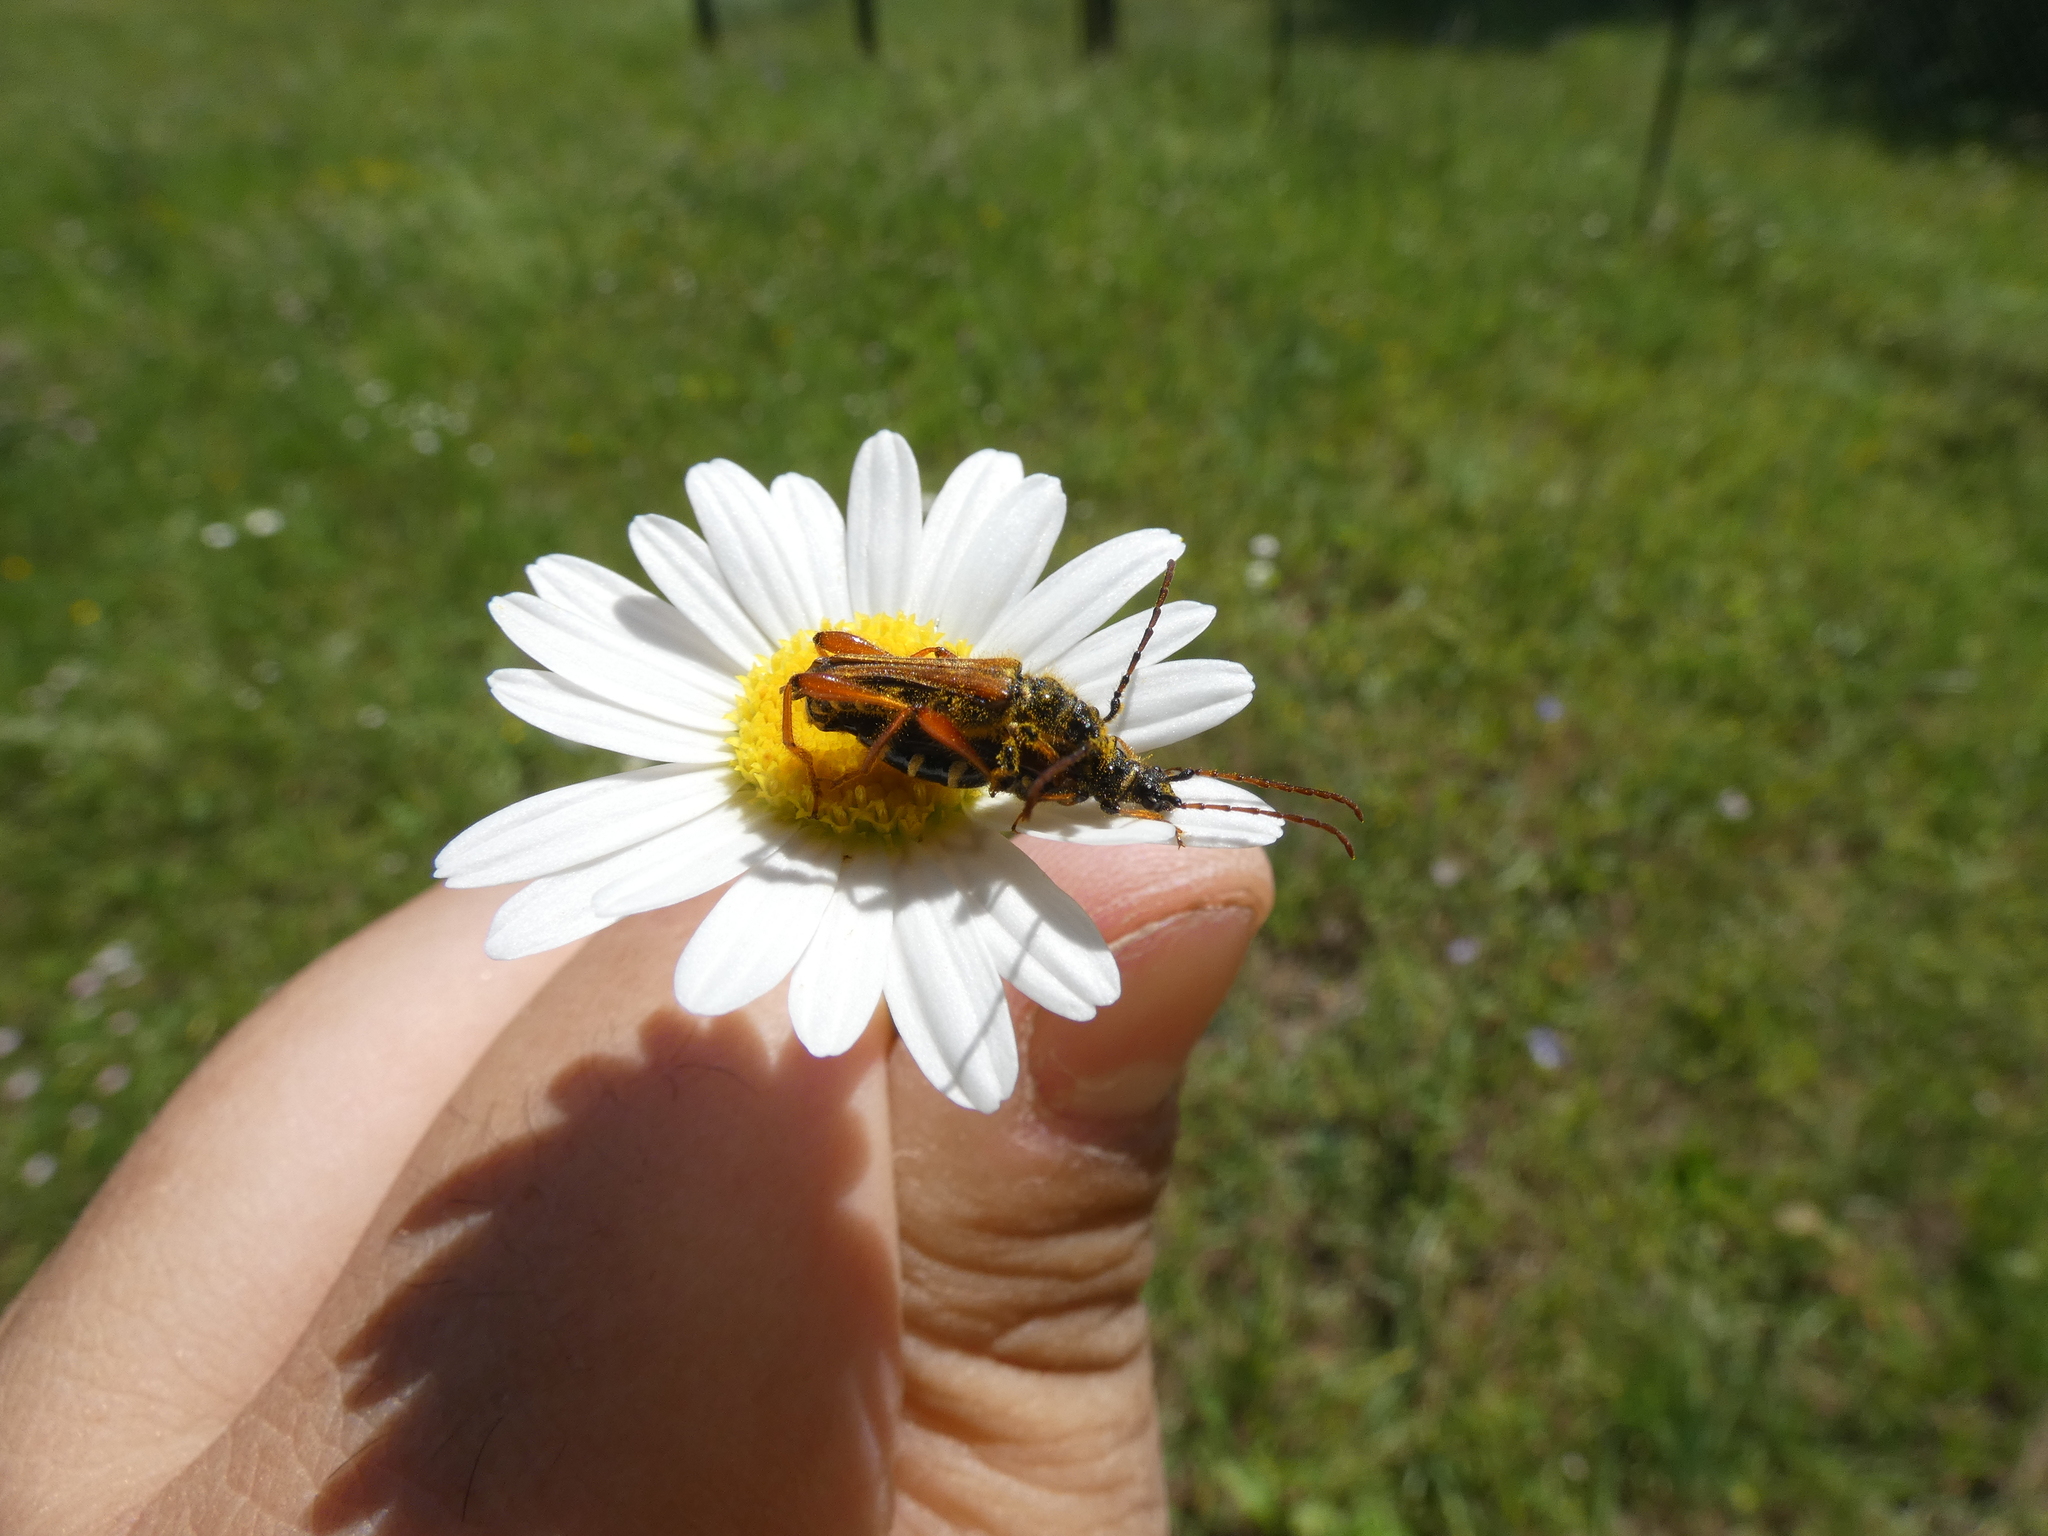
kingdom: Animalia
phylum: Arthropoda
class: Insecta
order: Coleoptera
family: Cerambycidae
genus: Stenopterus
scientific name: Stenopterus rufus
